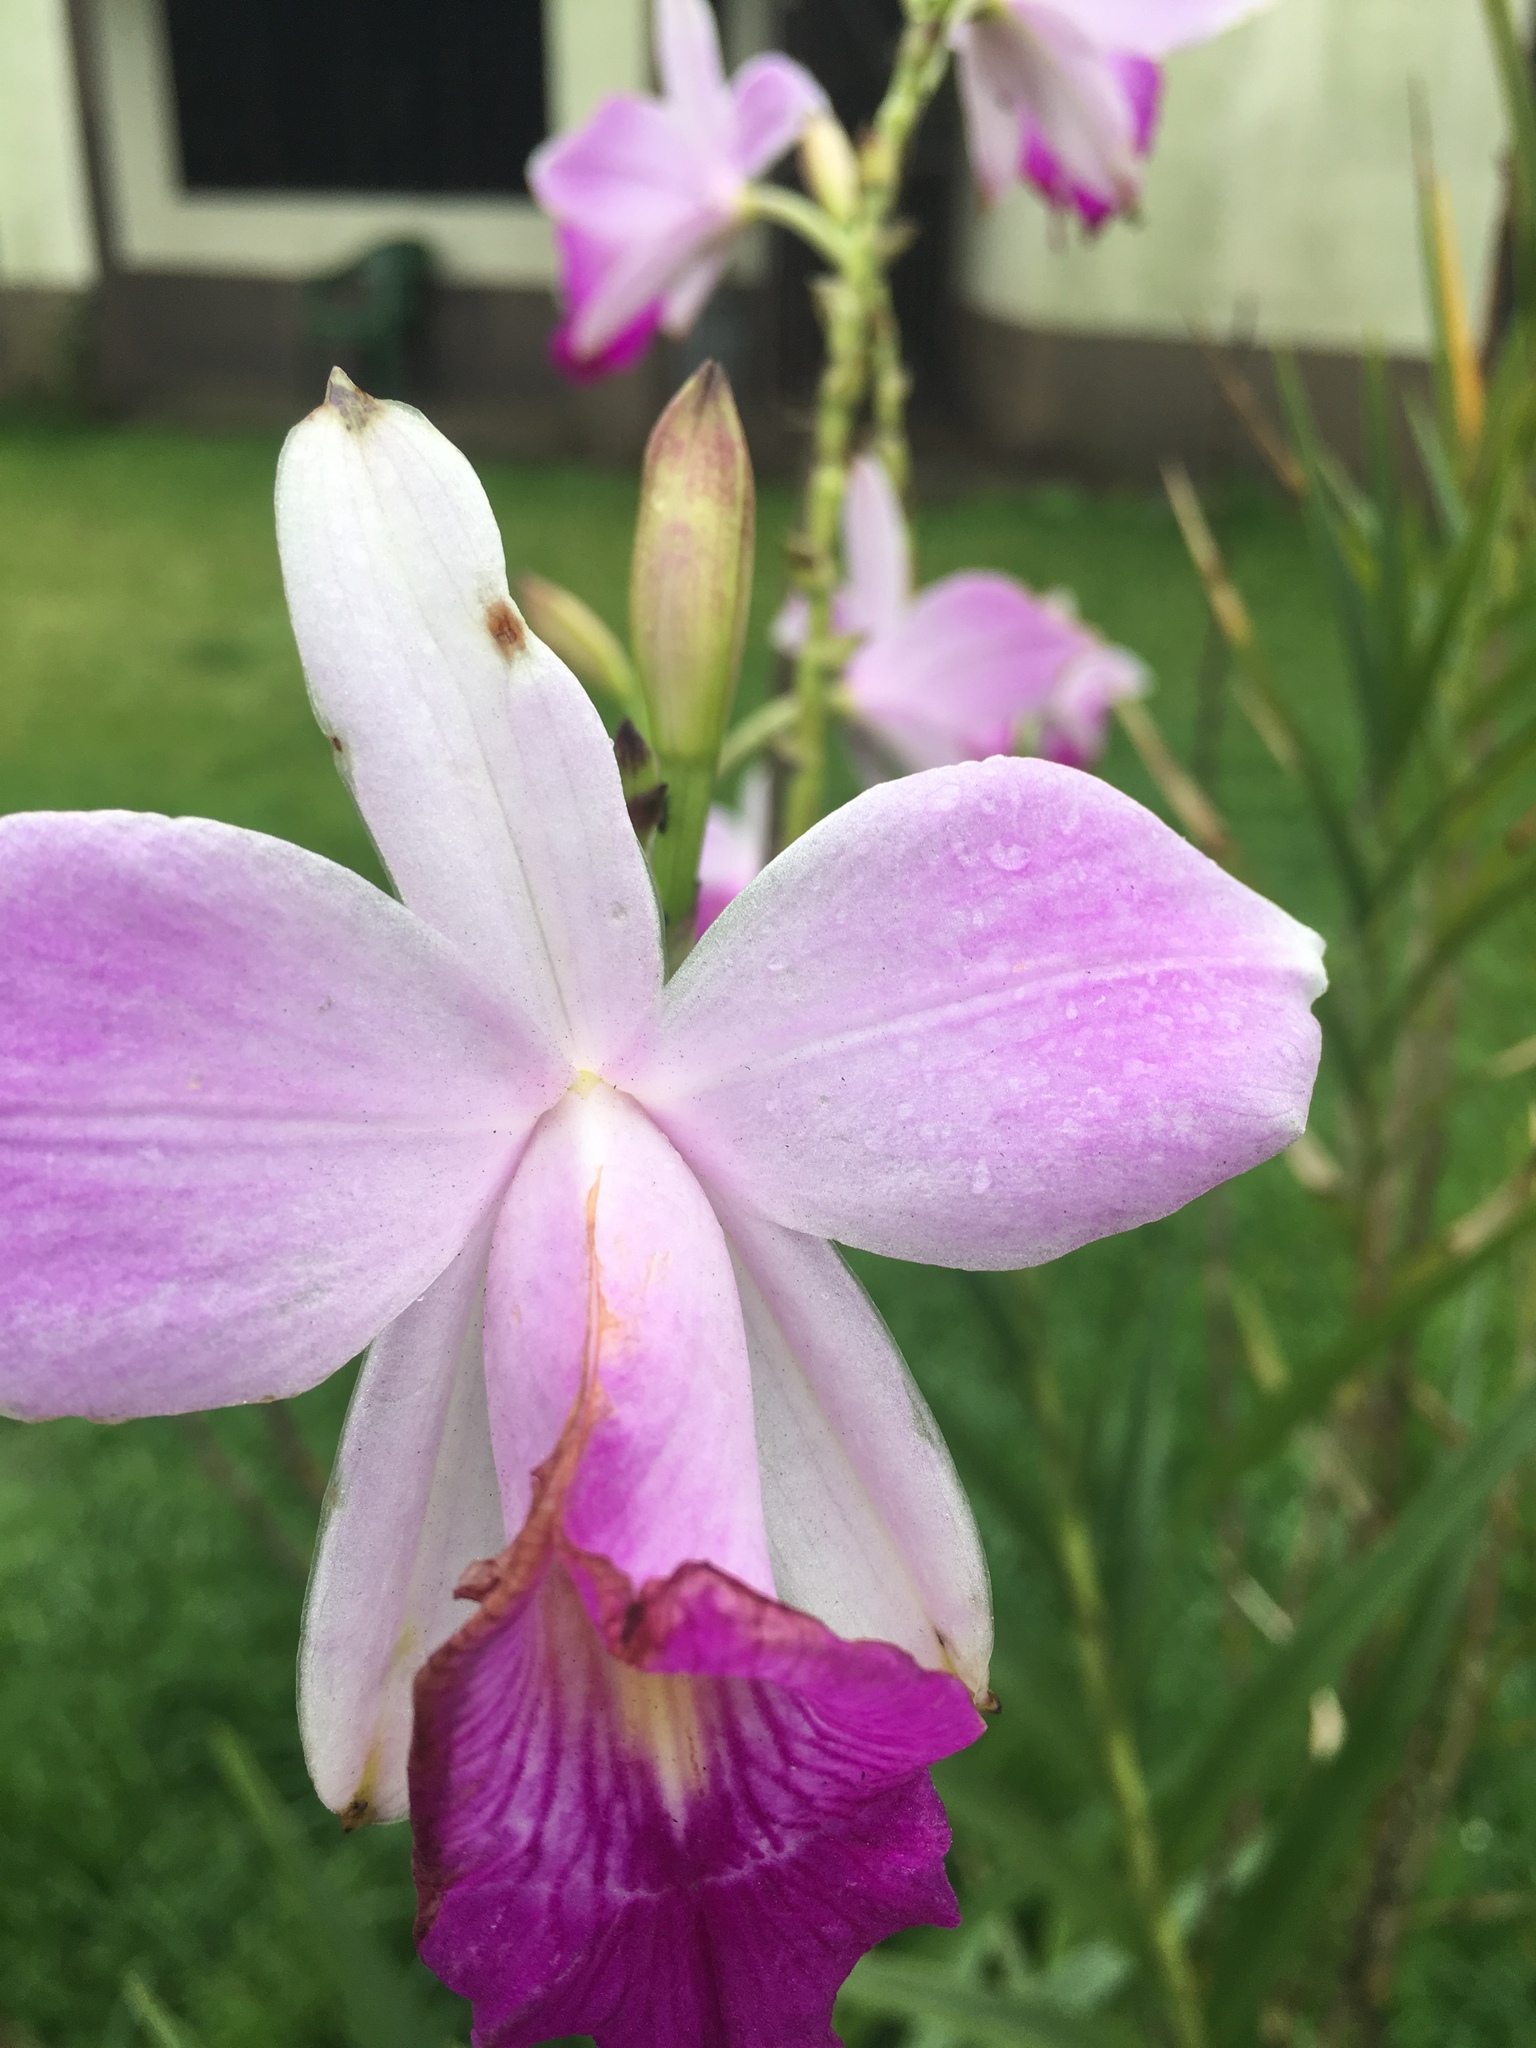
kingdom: Plantae
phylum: Tracheophyta
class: Liliopsida
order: Asparagales
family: Orchidaceae
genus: Arundina
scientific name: Arundina graminifolia
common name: Bamboo orchid
